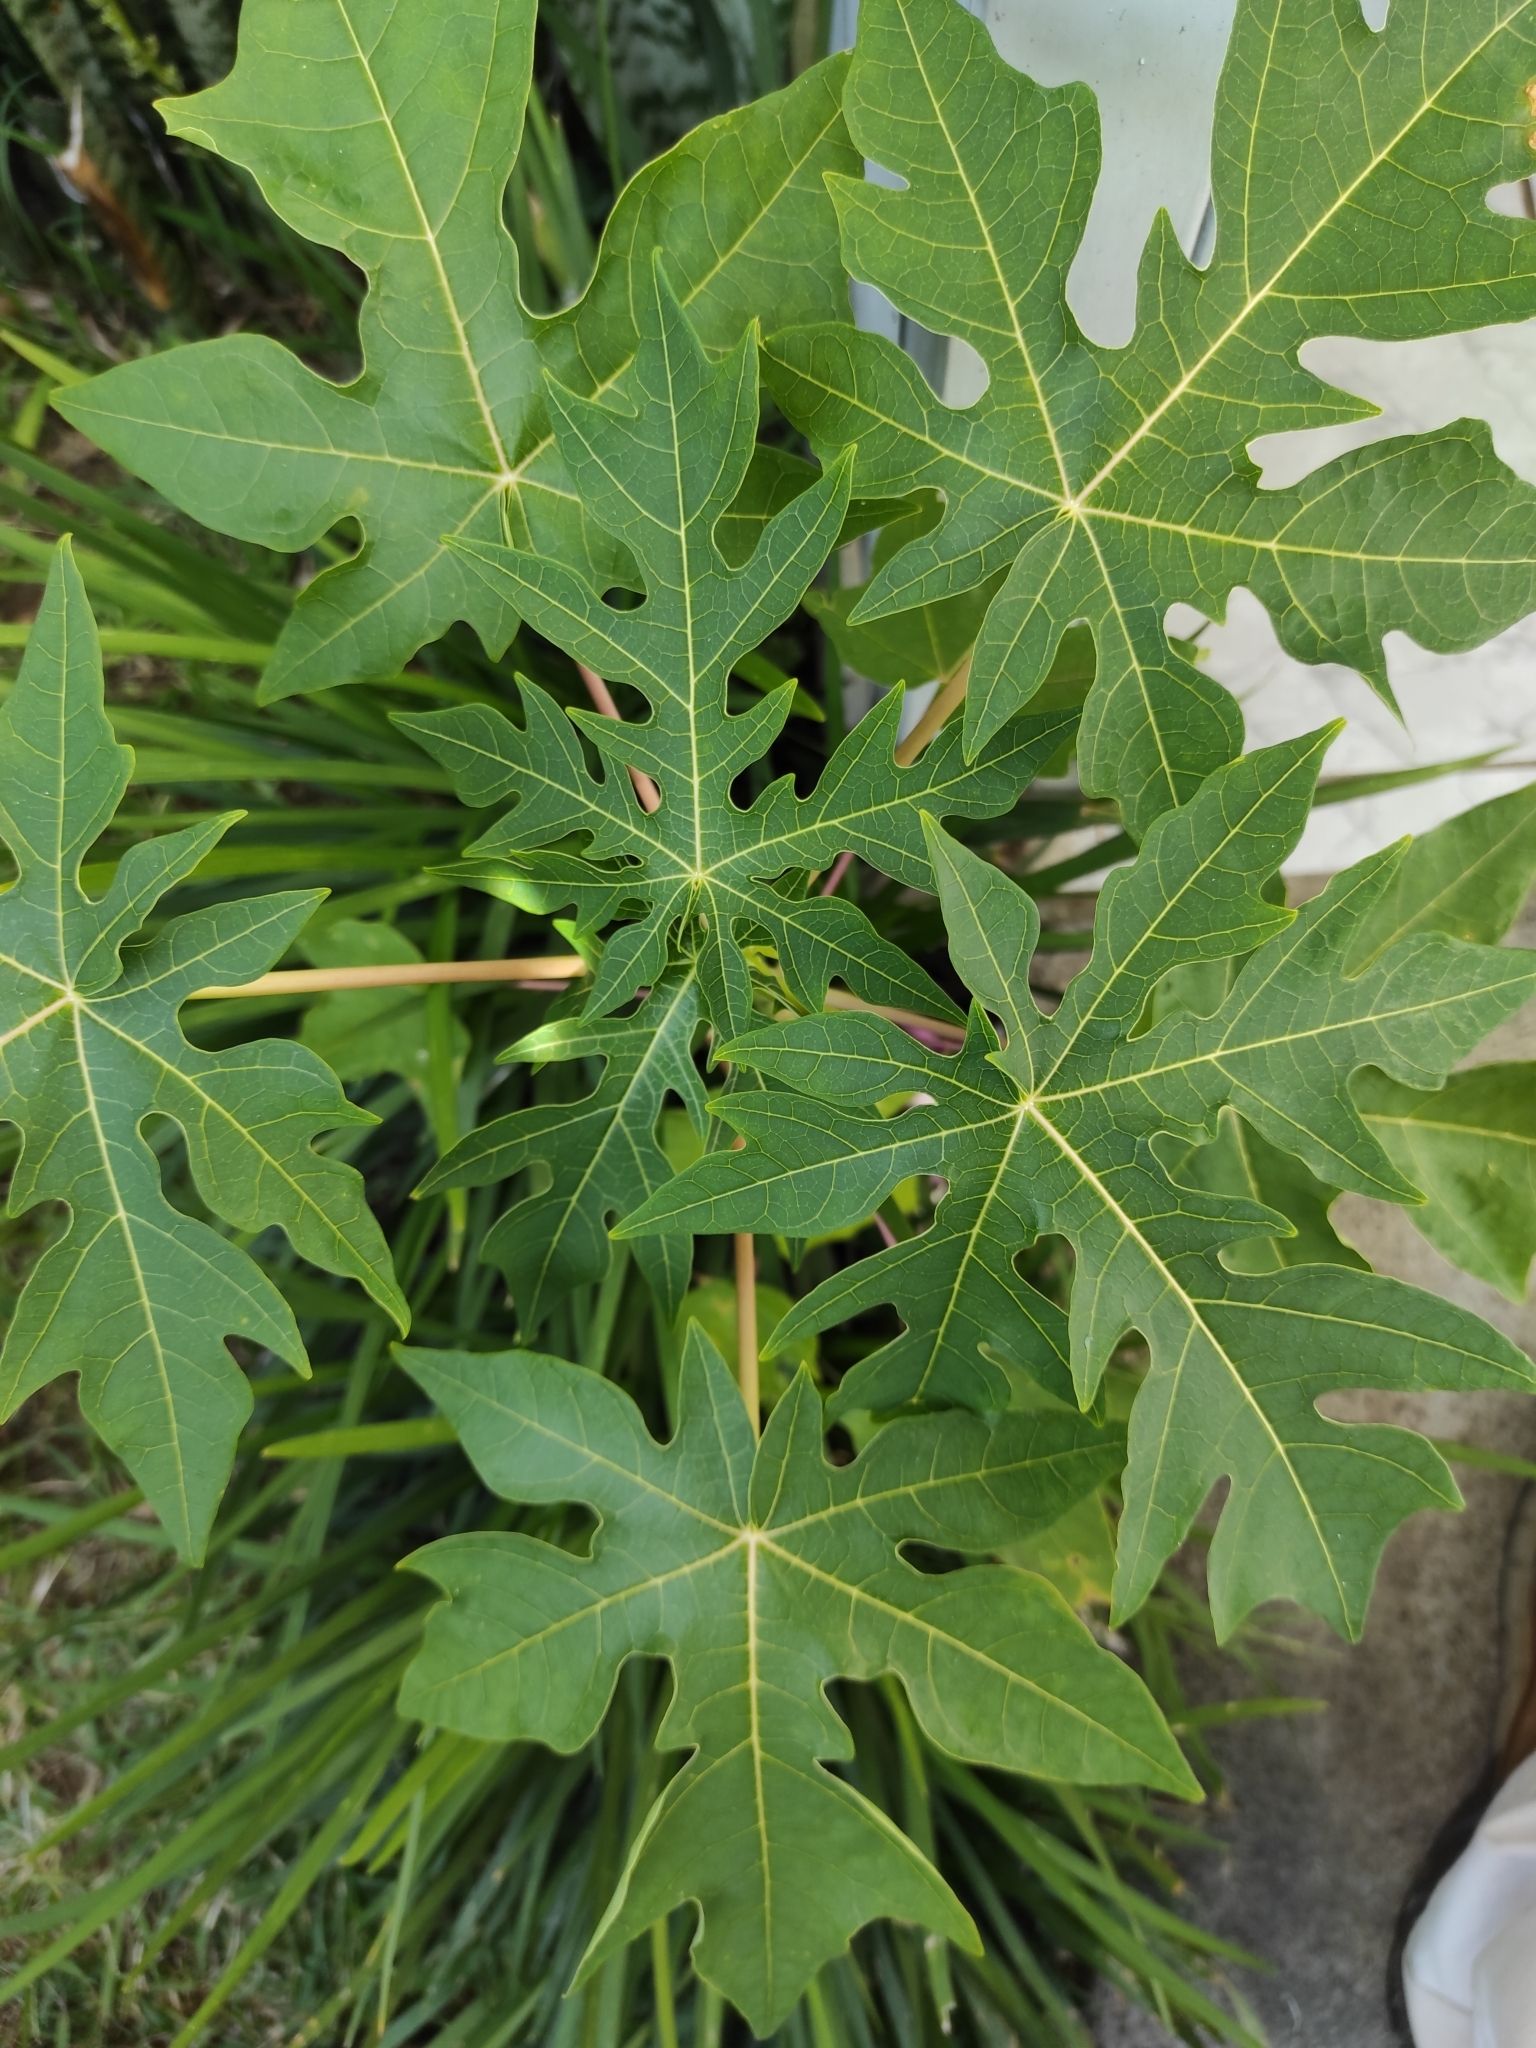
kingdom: Plantae
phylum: Tracheophyta
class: Magnoliopsida
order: Brassicales
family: Caricaceae
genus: Carica
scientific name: Carica papaya
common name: Papaya
